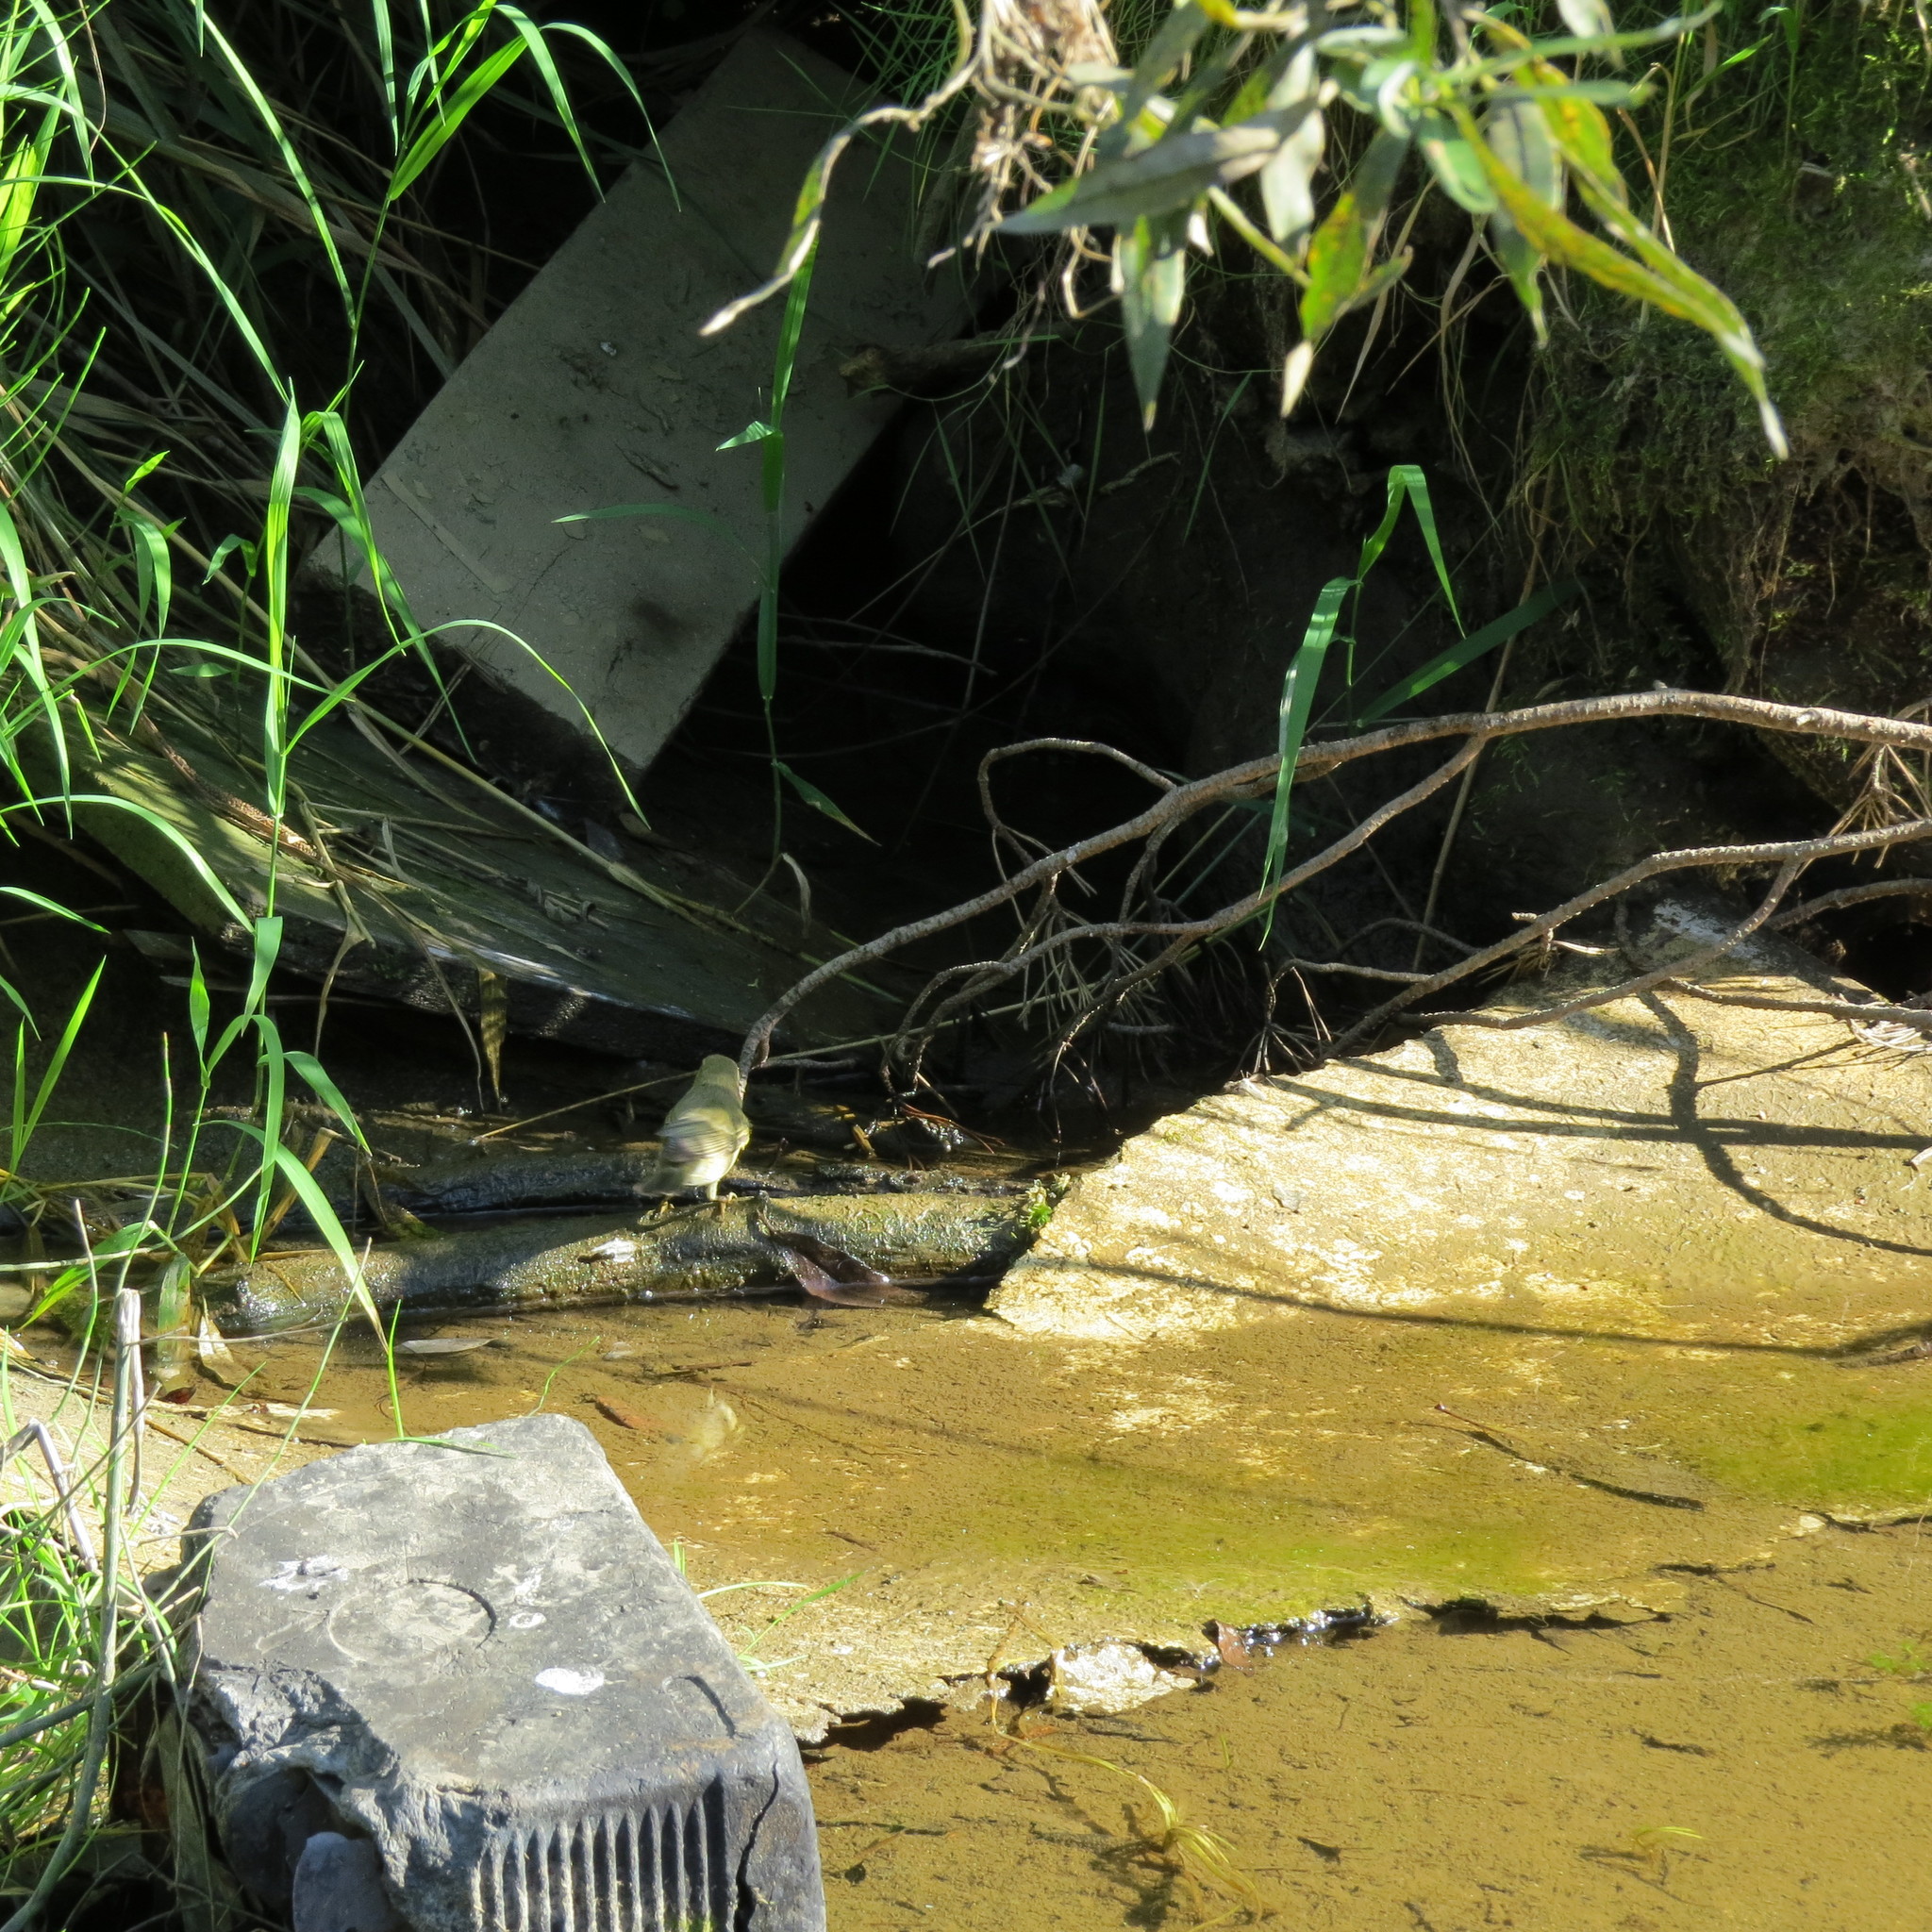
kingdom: Animalia
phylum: Chordata
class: Aves
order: Passeriformes
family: Phylloscopidae
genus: Phylloscopus
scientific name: Phylloscopus trochiloides
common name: Greenish warbler
